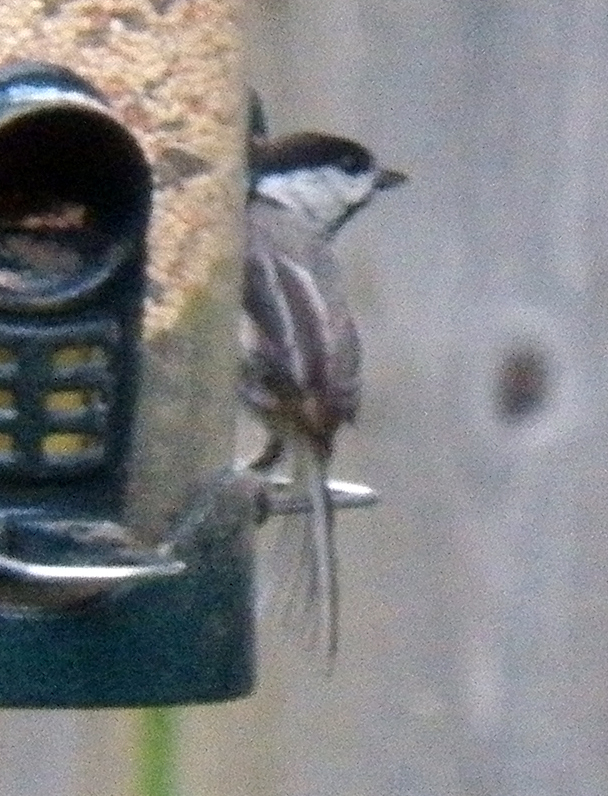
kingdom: Animalia
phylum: Chordata
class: Aves
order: Passeriformes
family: Paridae
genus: Poecile
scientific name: Poecile carolinensis
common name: Carolina chickadee
